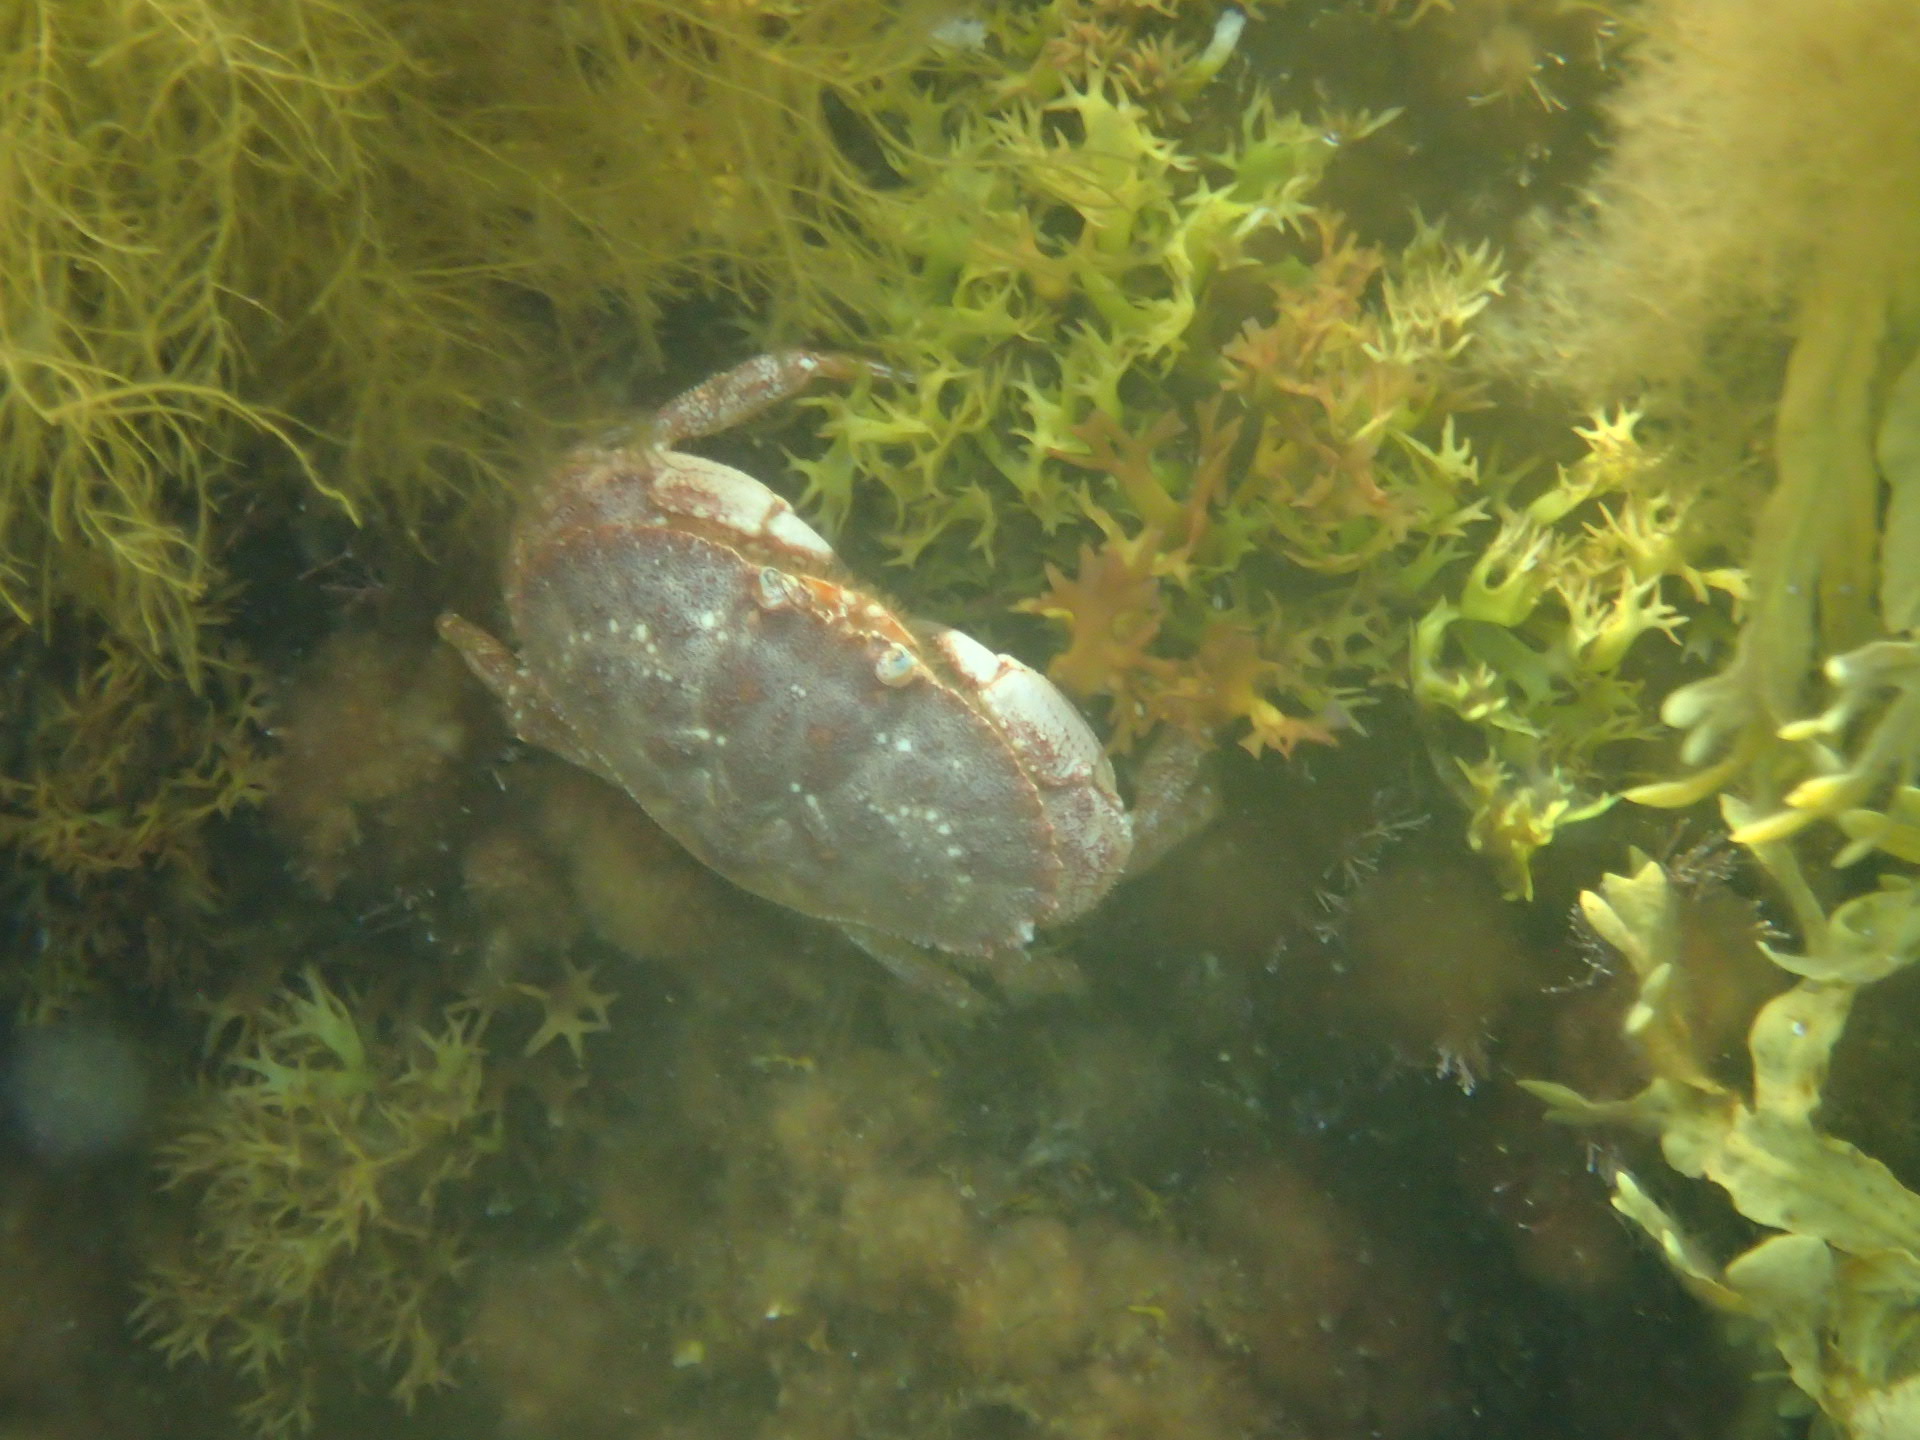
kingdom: Animalia
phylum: Arthropoda
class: Malacostraca
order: Decapoda
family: Cancridae
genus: Cancer
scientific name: Cancer borealis
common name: Jonah crab
